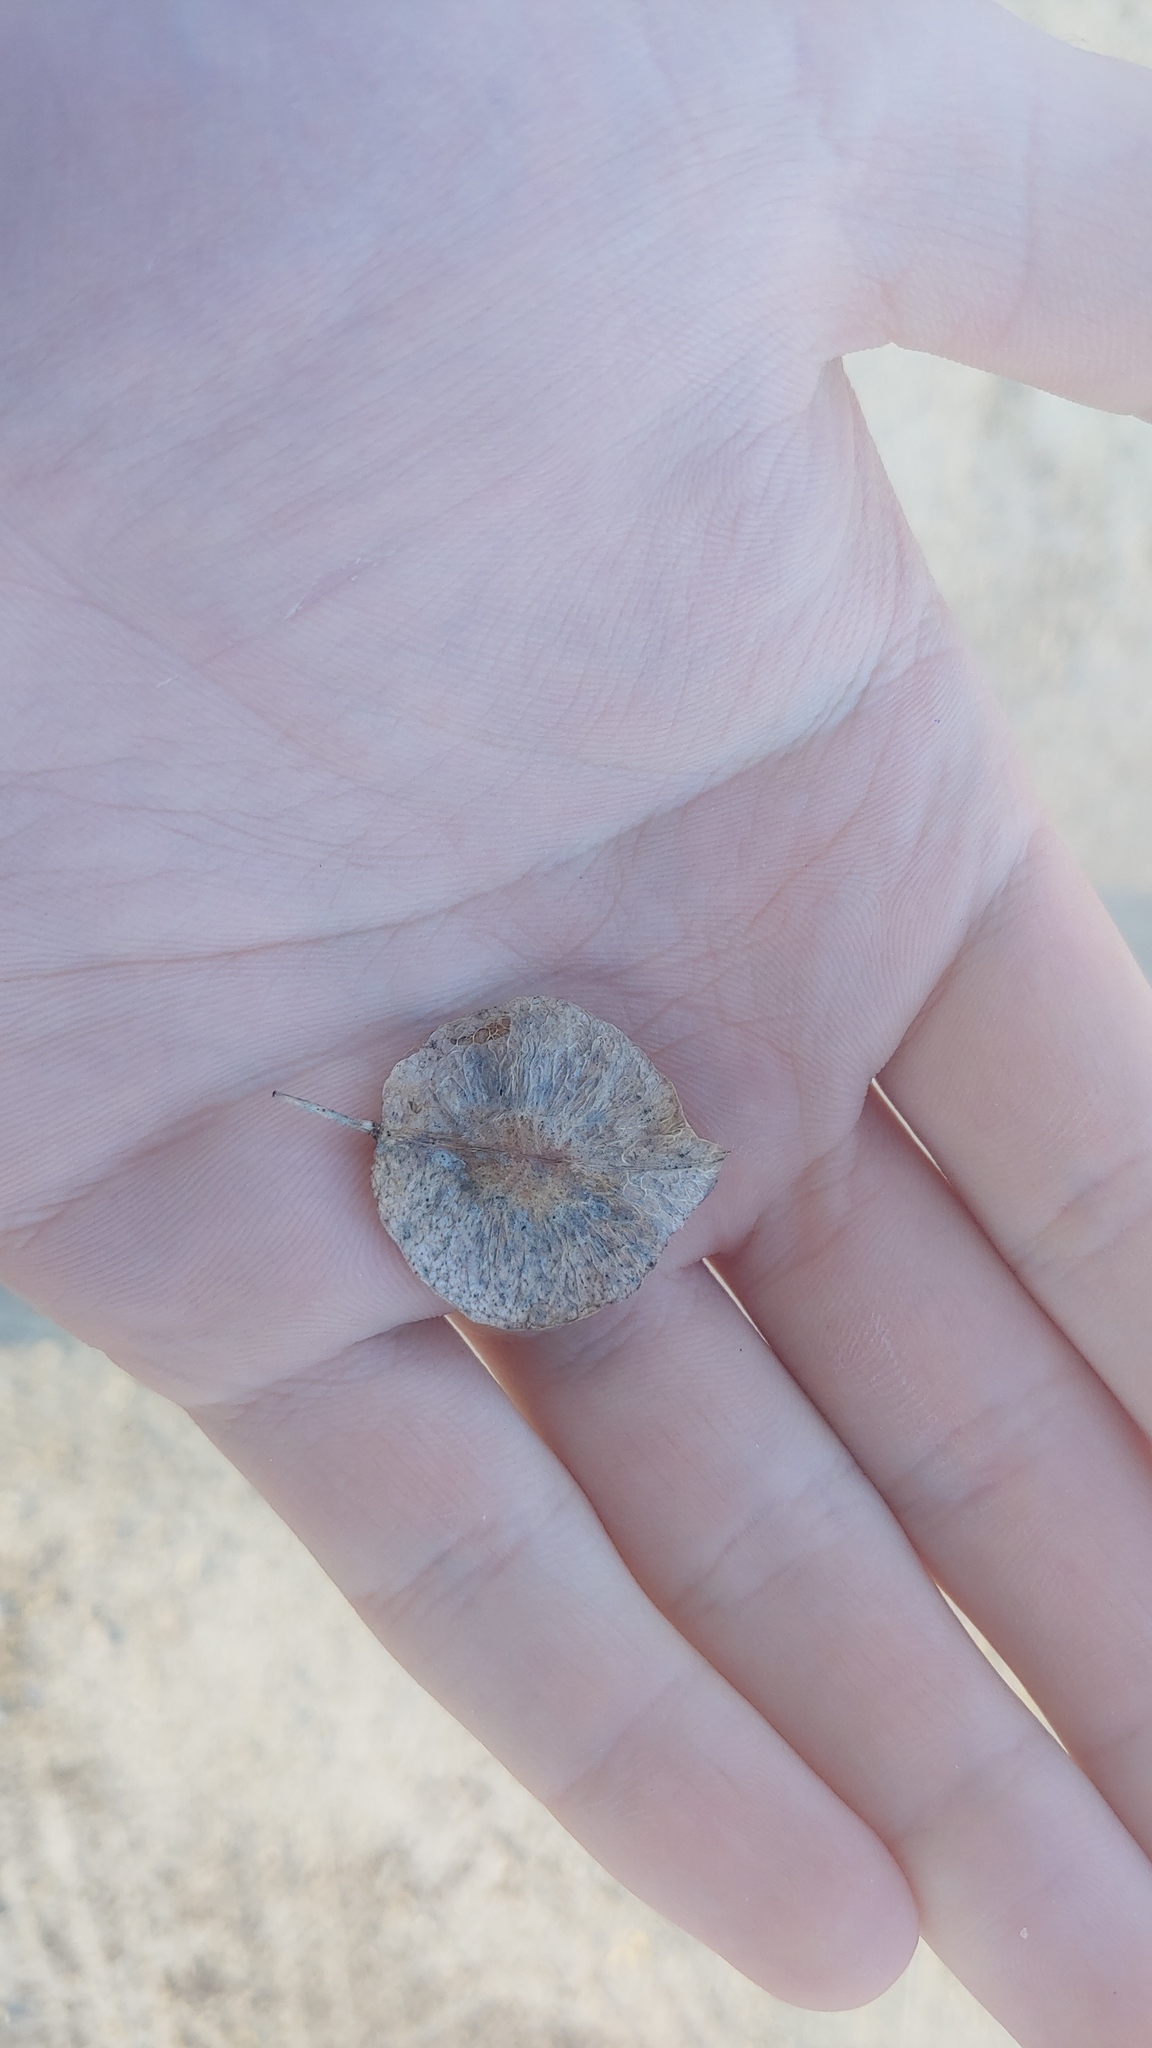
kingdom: Plantae
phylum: Tracheophyta
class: Magnoliopsida
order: Sapindales
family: Rutaceae
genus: Ptelea
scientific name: Ptelea trifoliata
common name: Common hop-tree
